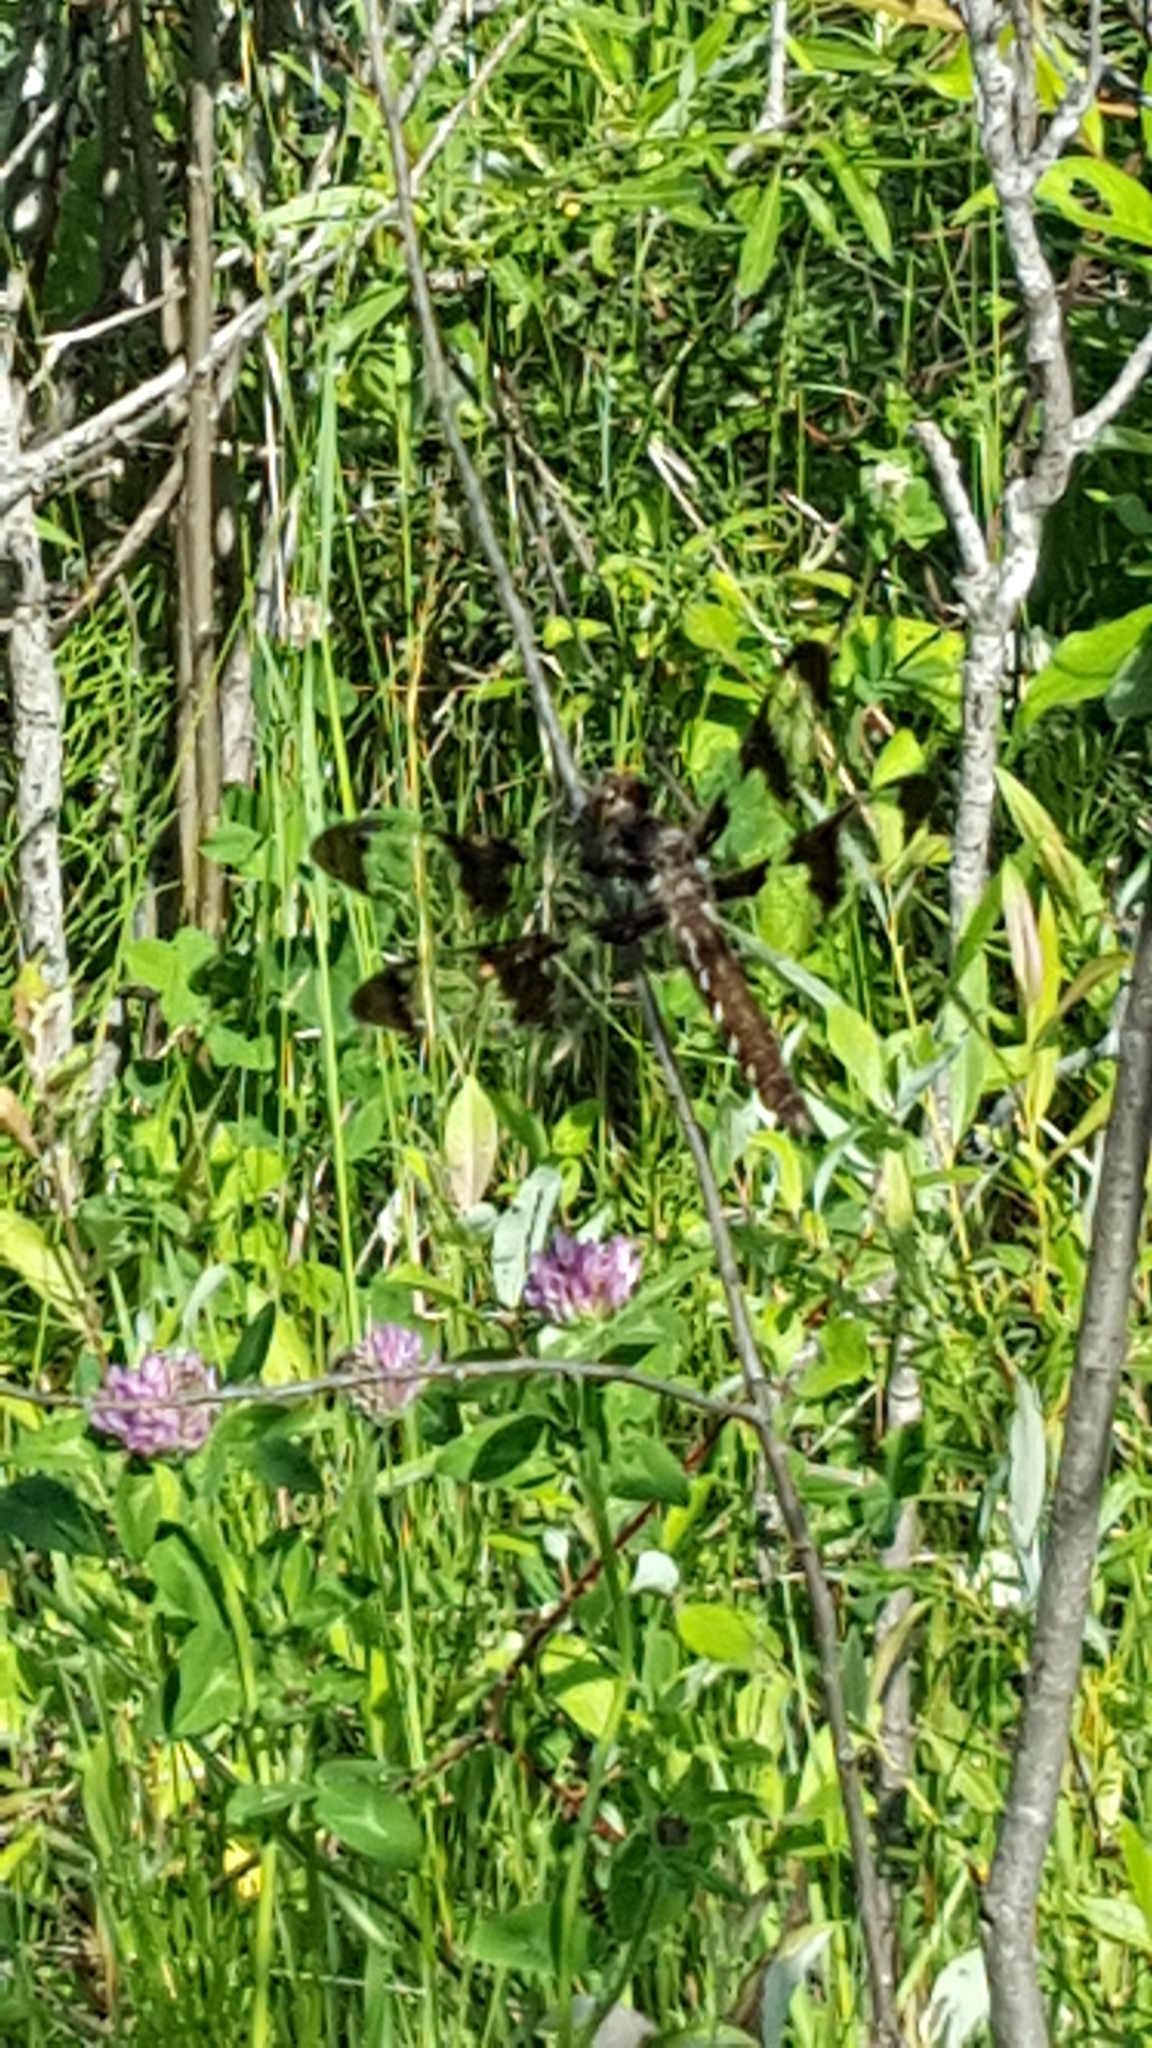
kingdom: Animalia
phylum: Arthropoda
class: Insecta
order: Odonata
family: Libellulidae
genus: Plathemis
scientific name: Plathemis lydia
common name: Common whitetail
